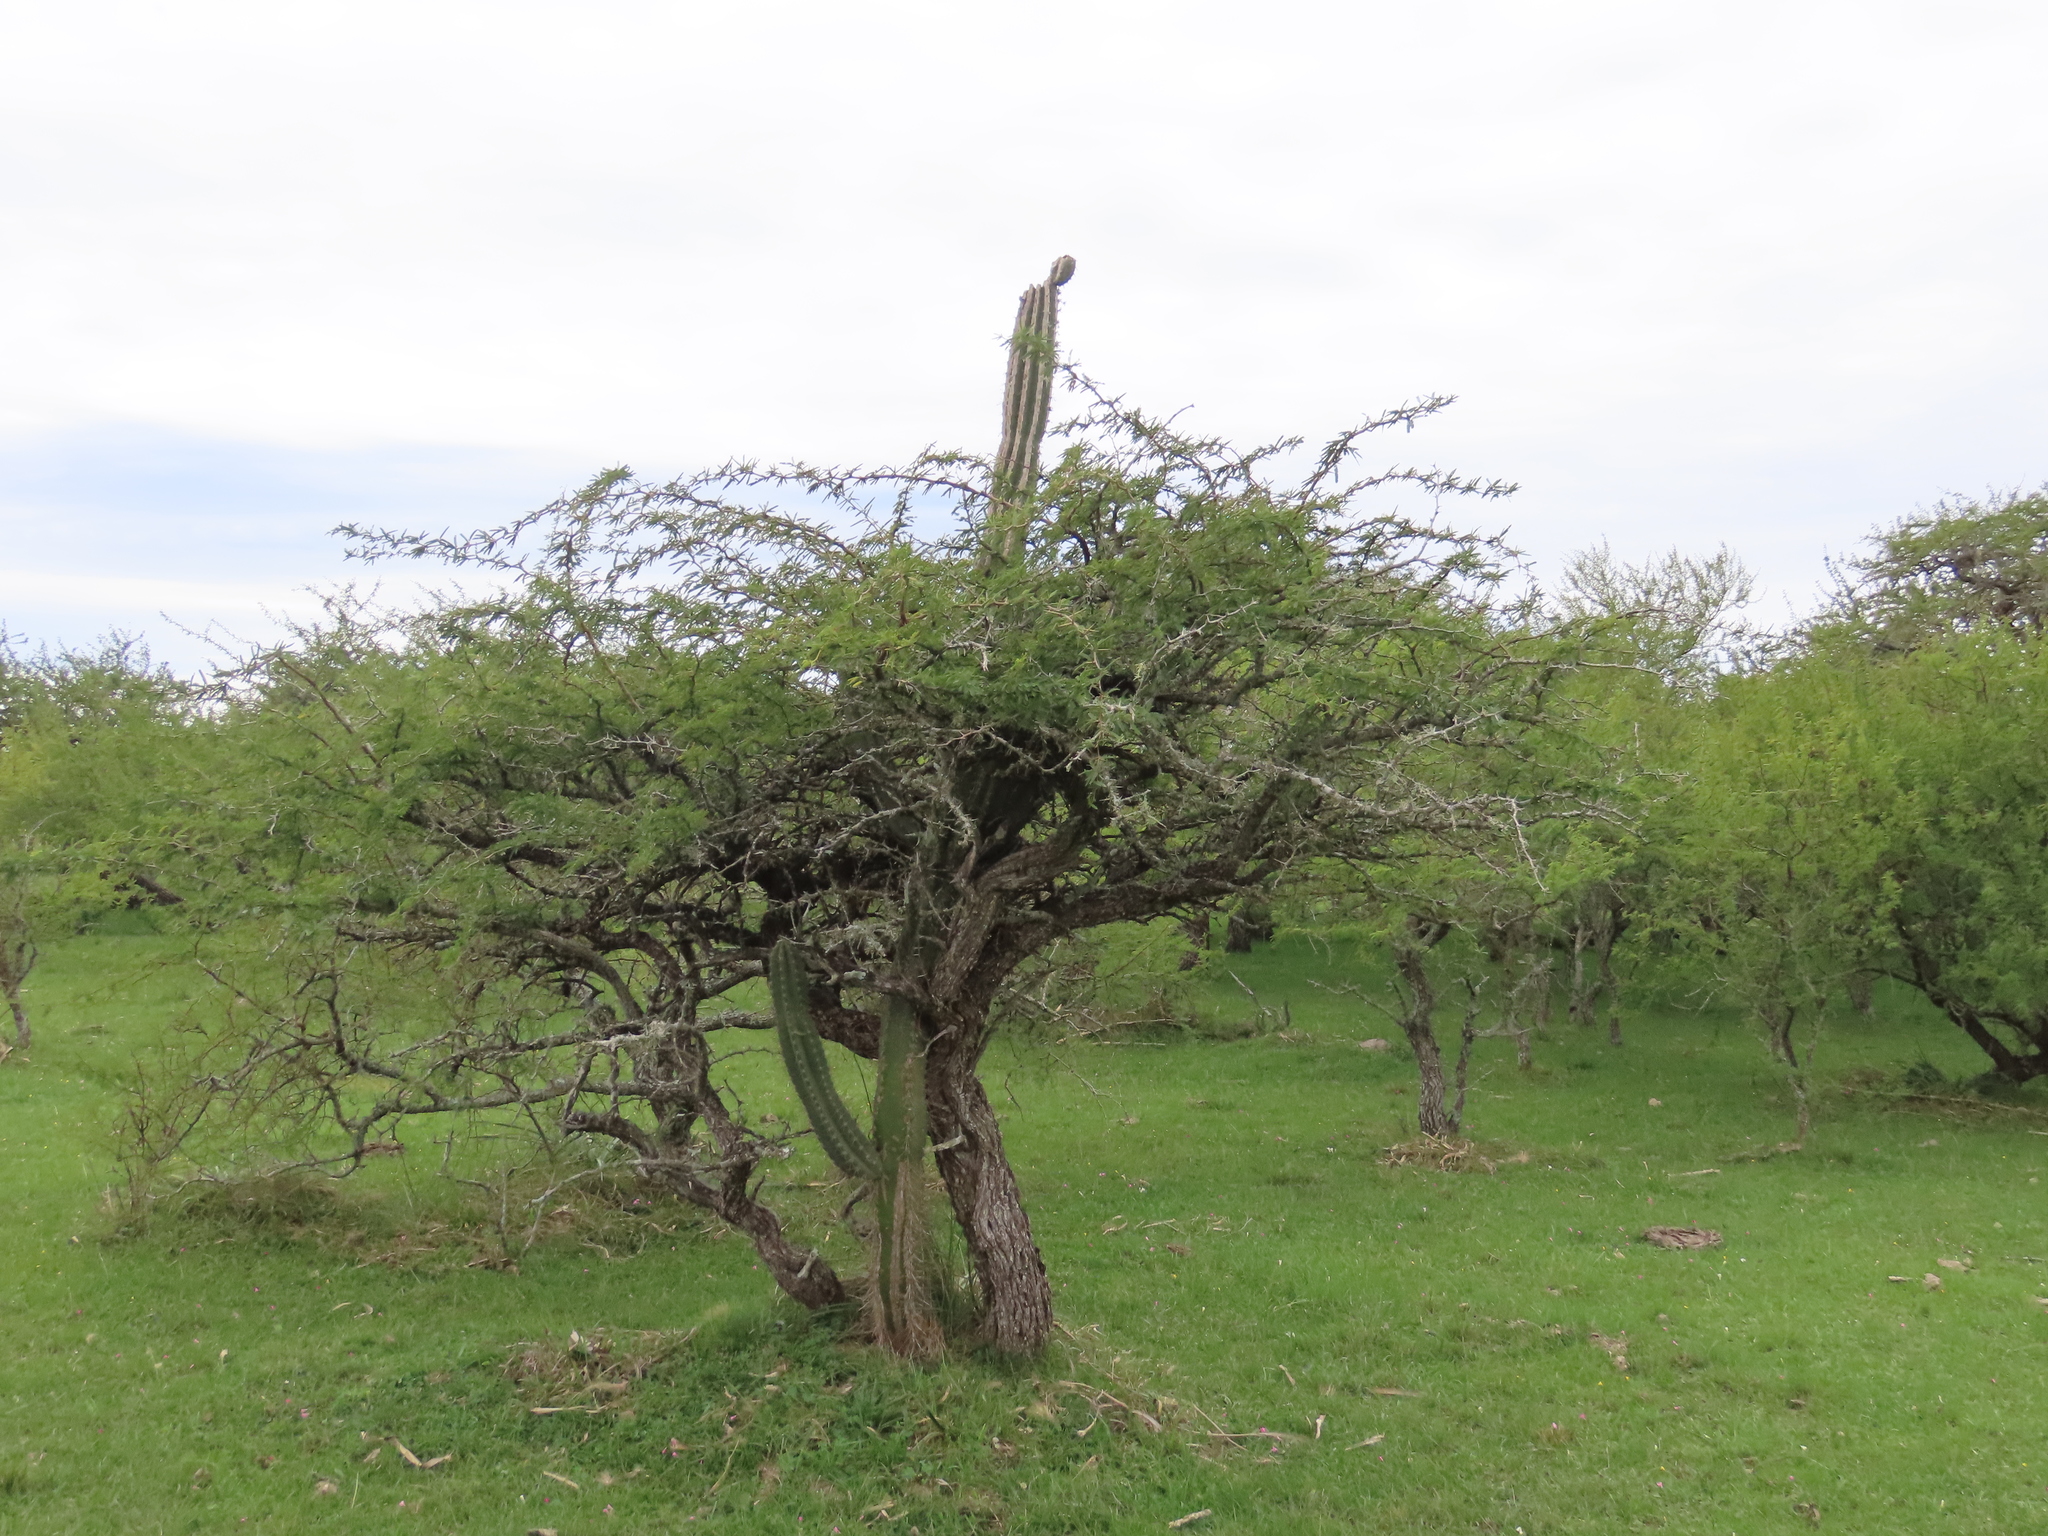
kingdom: Plantae
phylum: Tracheophyta
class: Magnoliopsida
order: Caryophyllales
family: Cactaceae
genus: Cereus
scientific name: Cereus hildmannianus
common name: Hedge cactus
